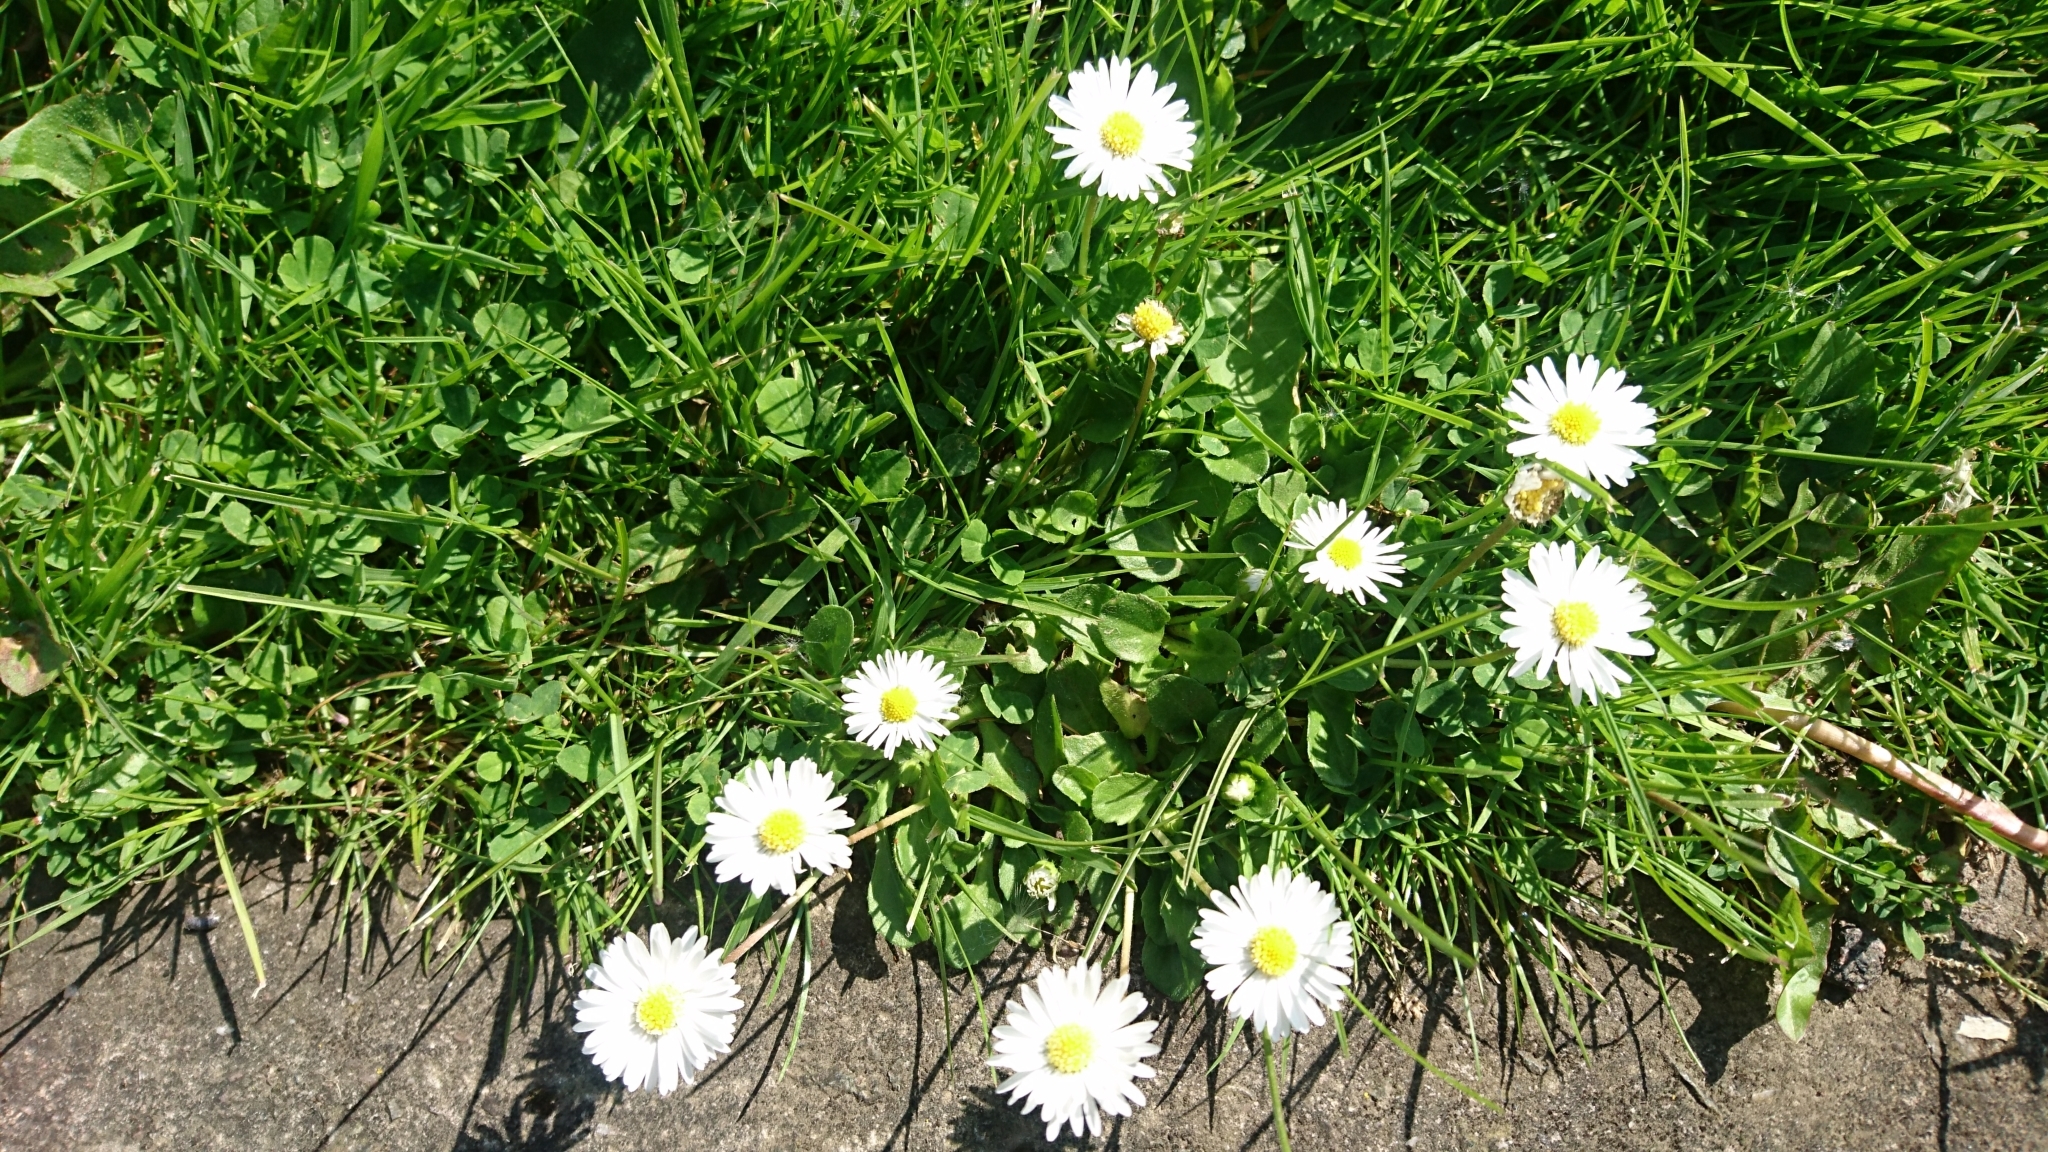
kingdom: Plantae
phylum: Tracheophyta
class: Magnoliopsida
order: Asterales
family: Asteraceae
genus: Bellis
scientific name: Bellis perennis
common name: Lawndaisy
